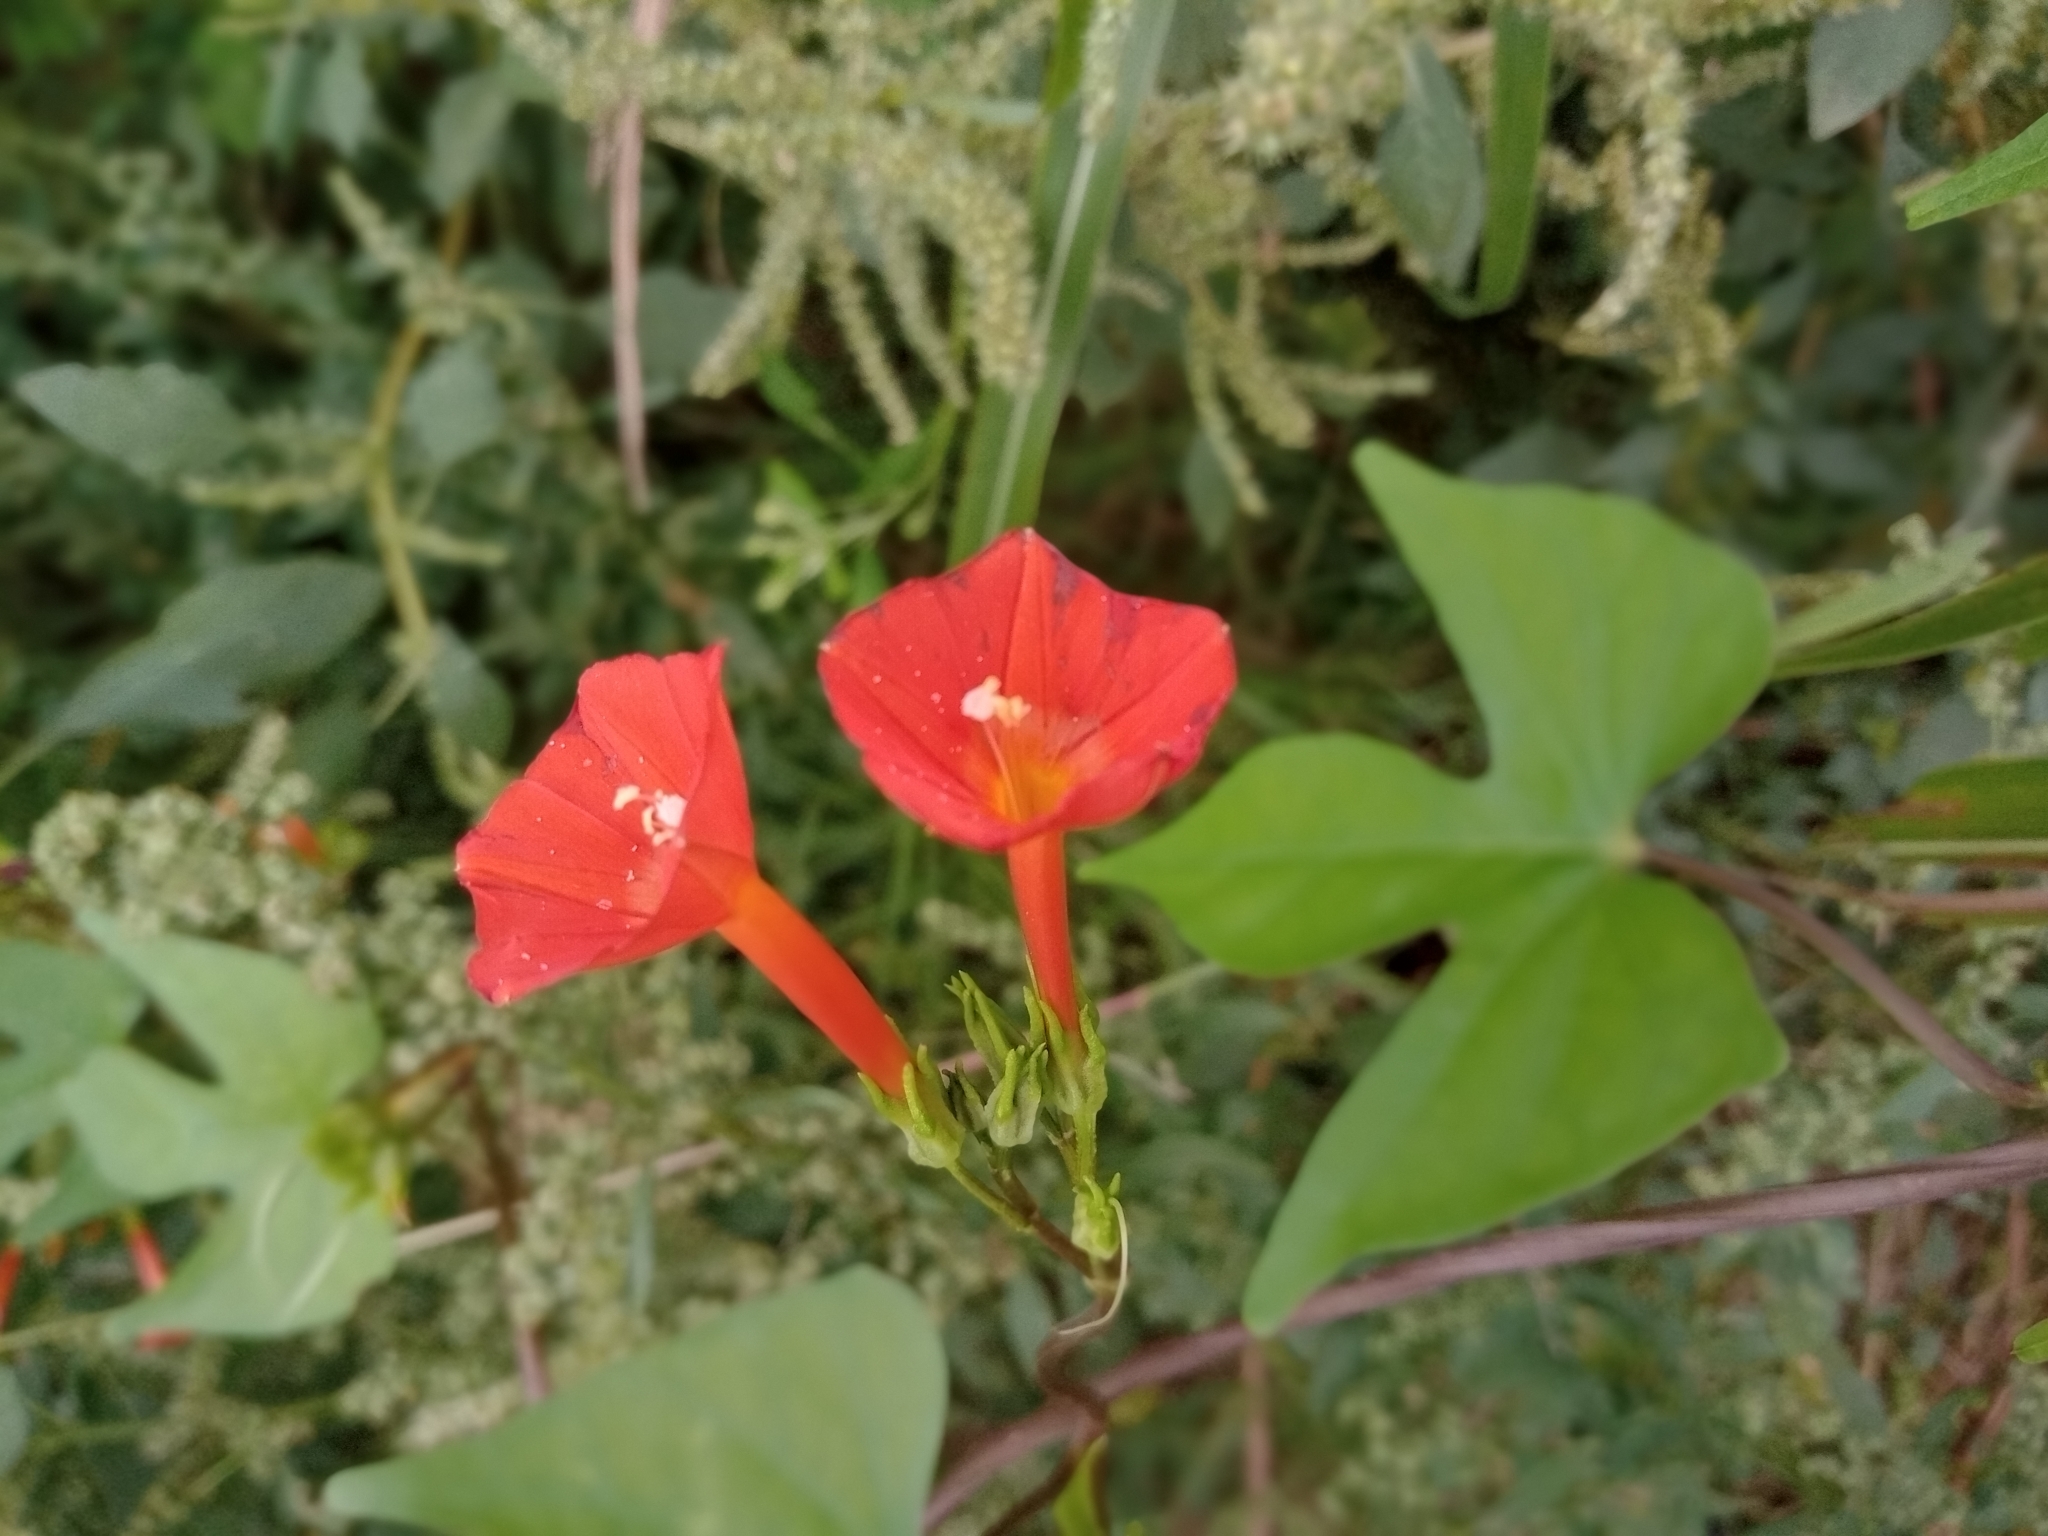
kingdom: Plantae
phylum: Tracheophyta
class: Magnoliopsida
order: Solanales
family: Convolvulaceae
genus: Ipomoea
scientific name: Ipomoea rubriflora
